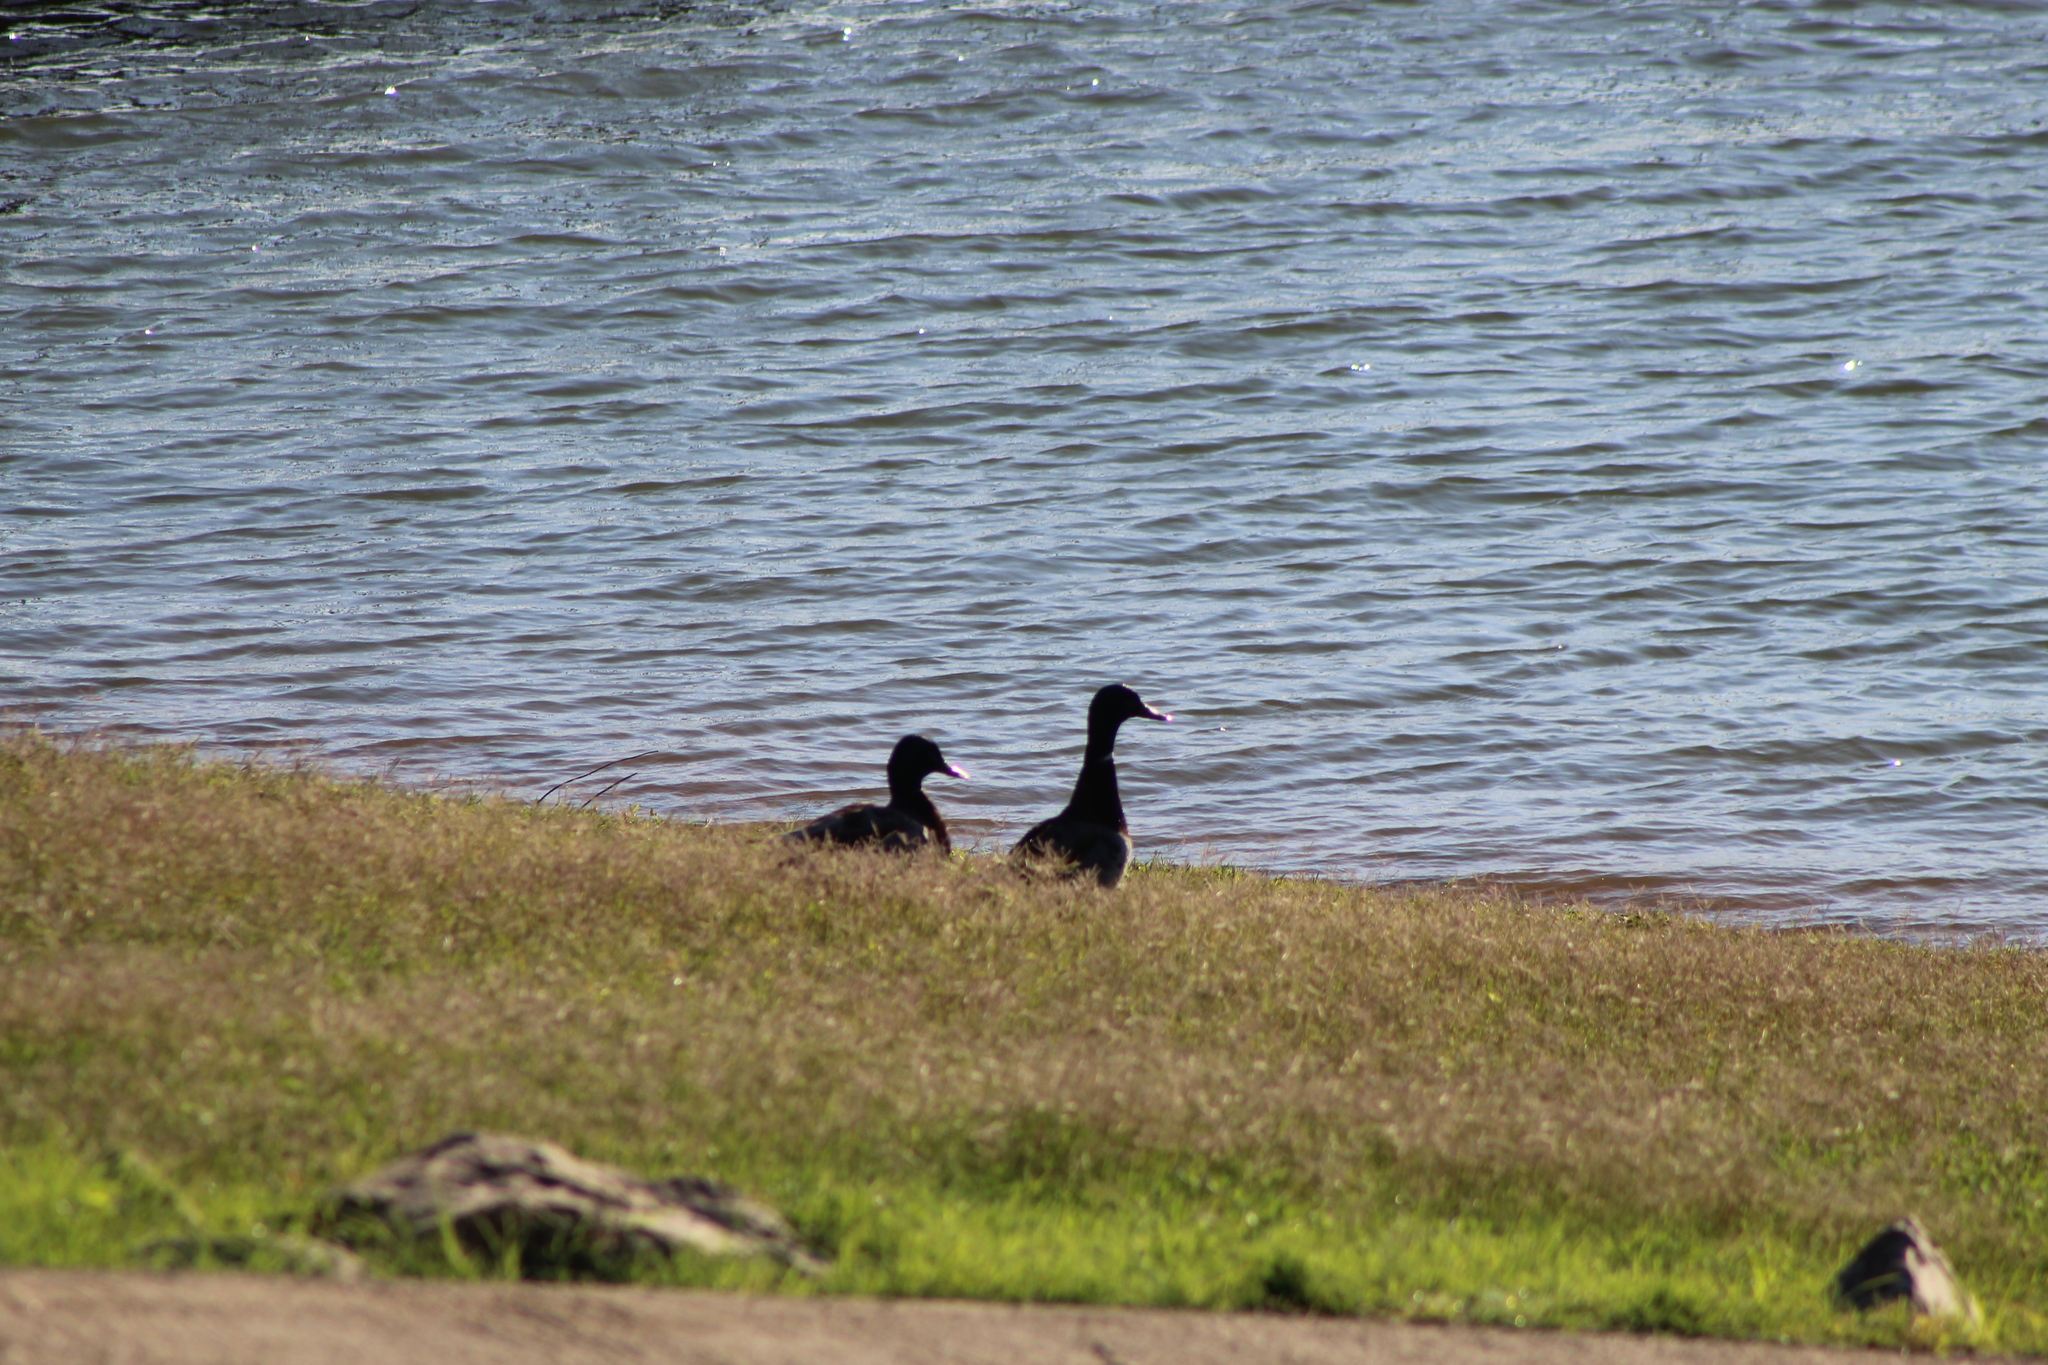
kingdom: Animalia
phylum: Chordata
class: Aves
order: Anseriformes
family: Anatidae
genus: Anas
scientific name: Anas platyrhynchos
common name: Mallard
